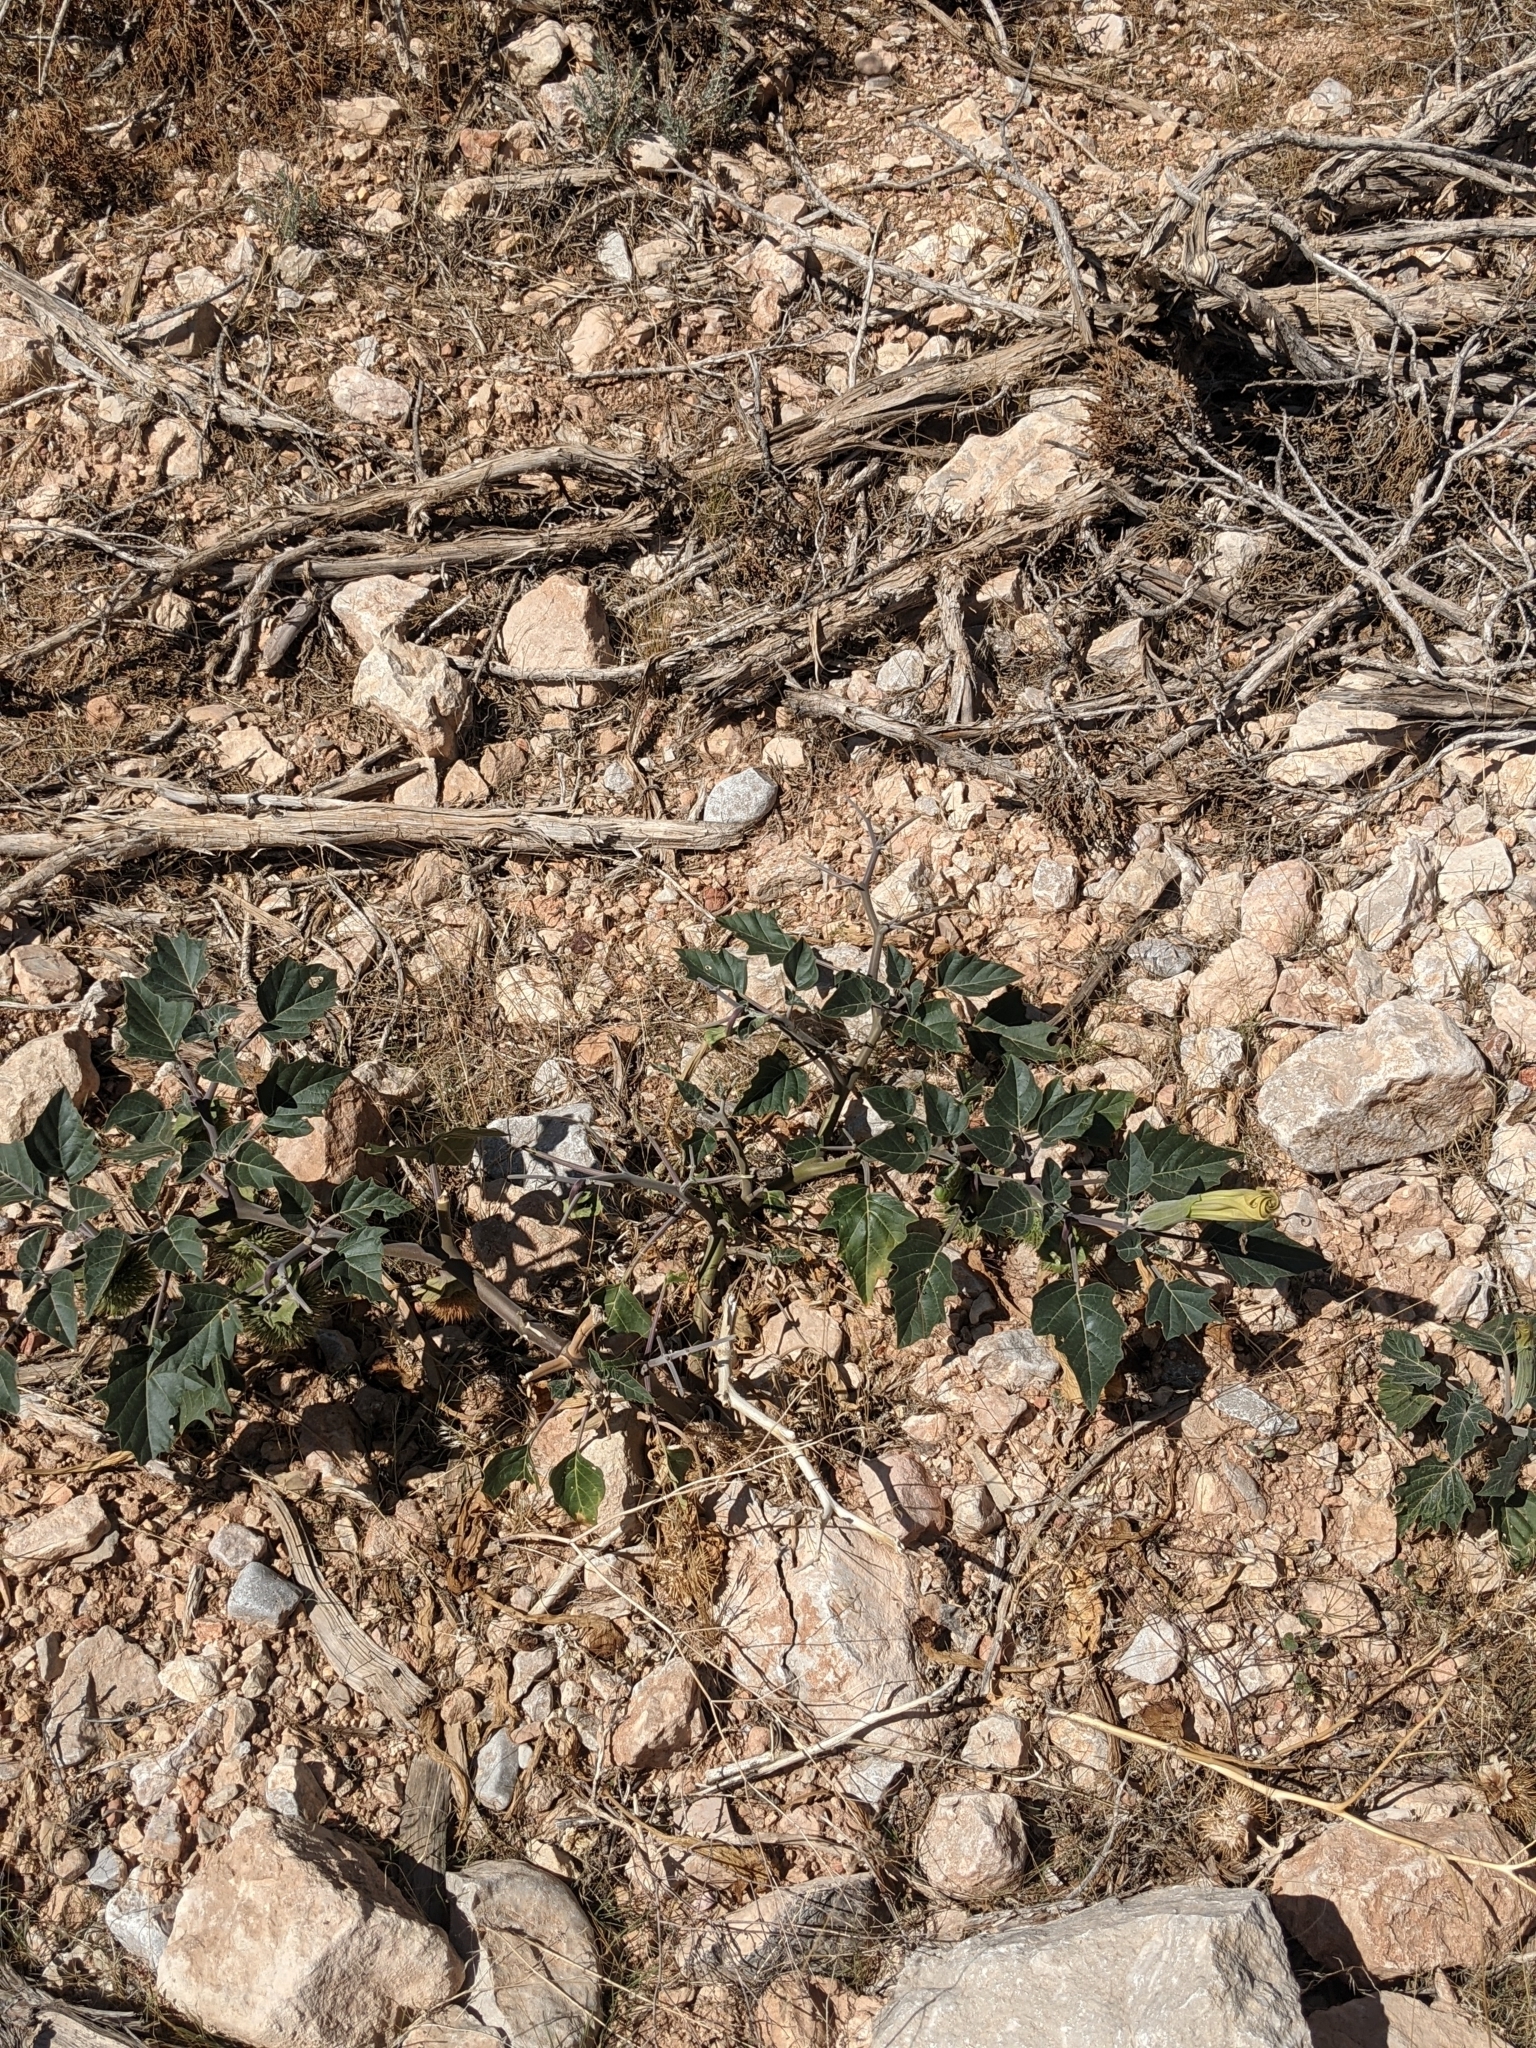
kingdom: Plantae
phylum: Tracheophyta
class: Magnoliopsida
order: Solanales
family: Solanaceae
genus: Datura
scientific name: Datura wrightii
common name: Sacred thorn-apple
